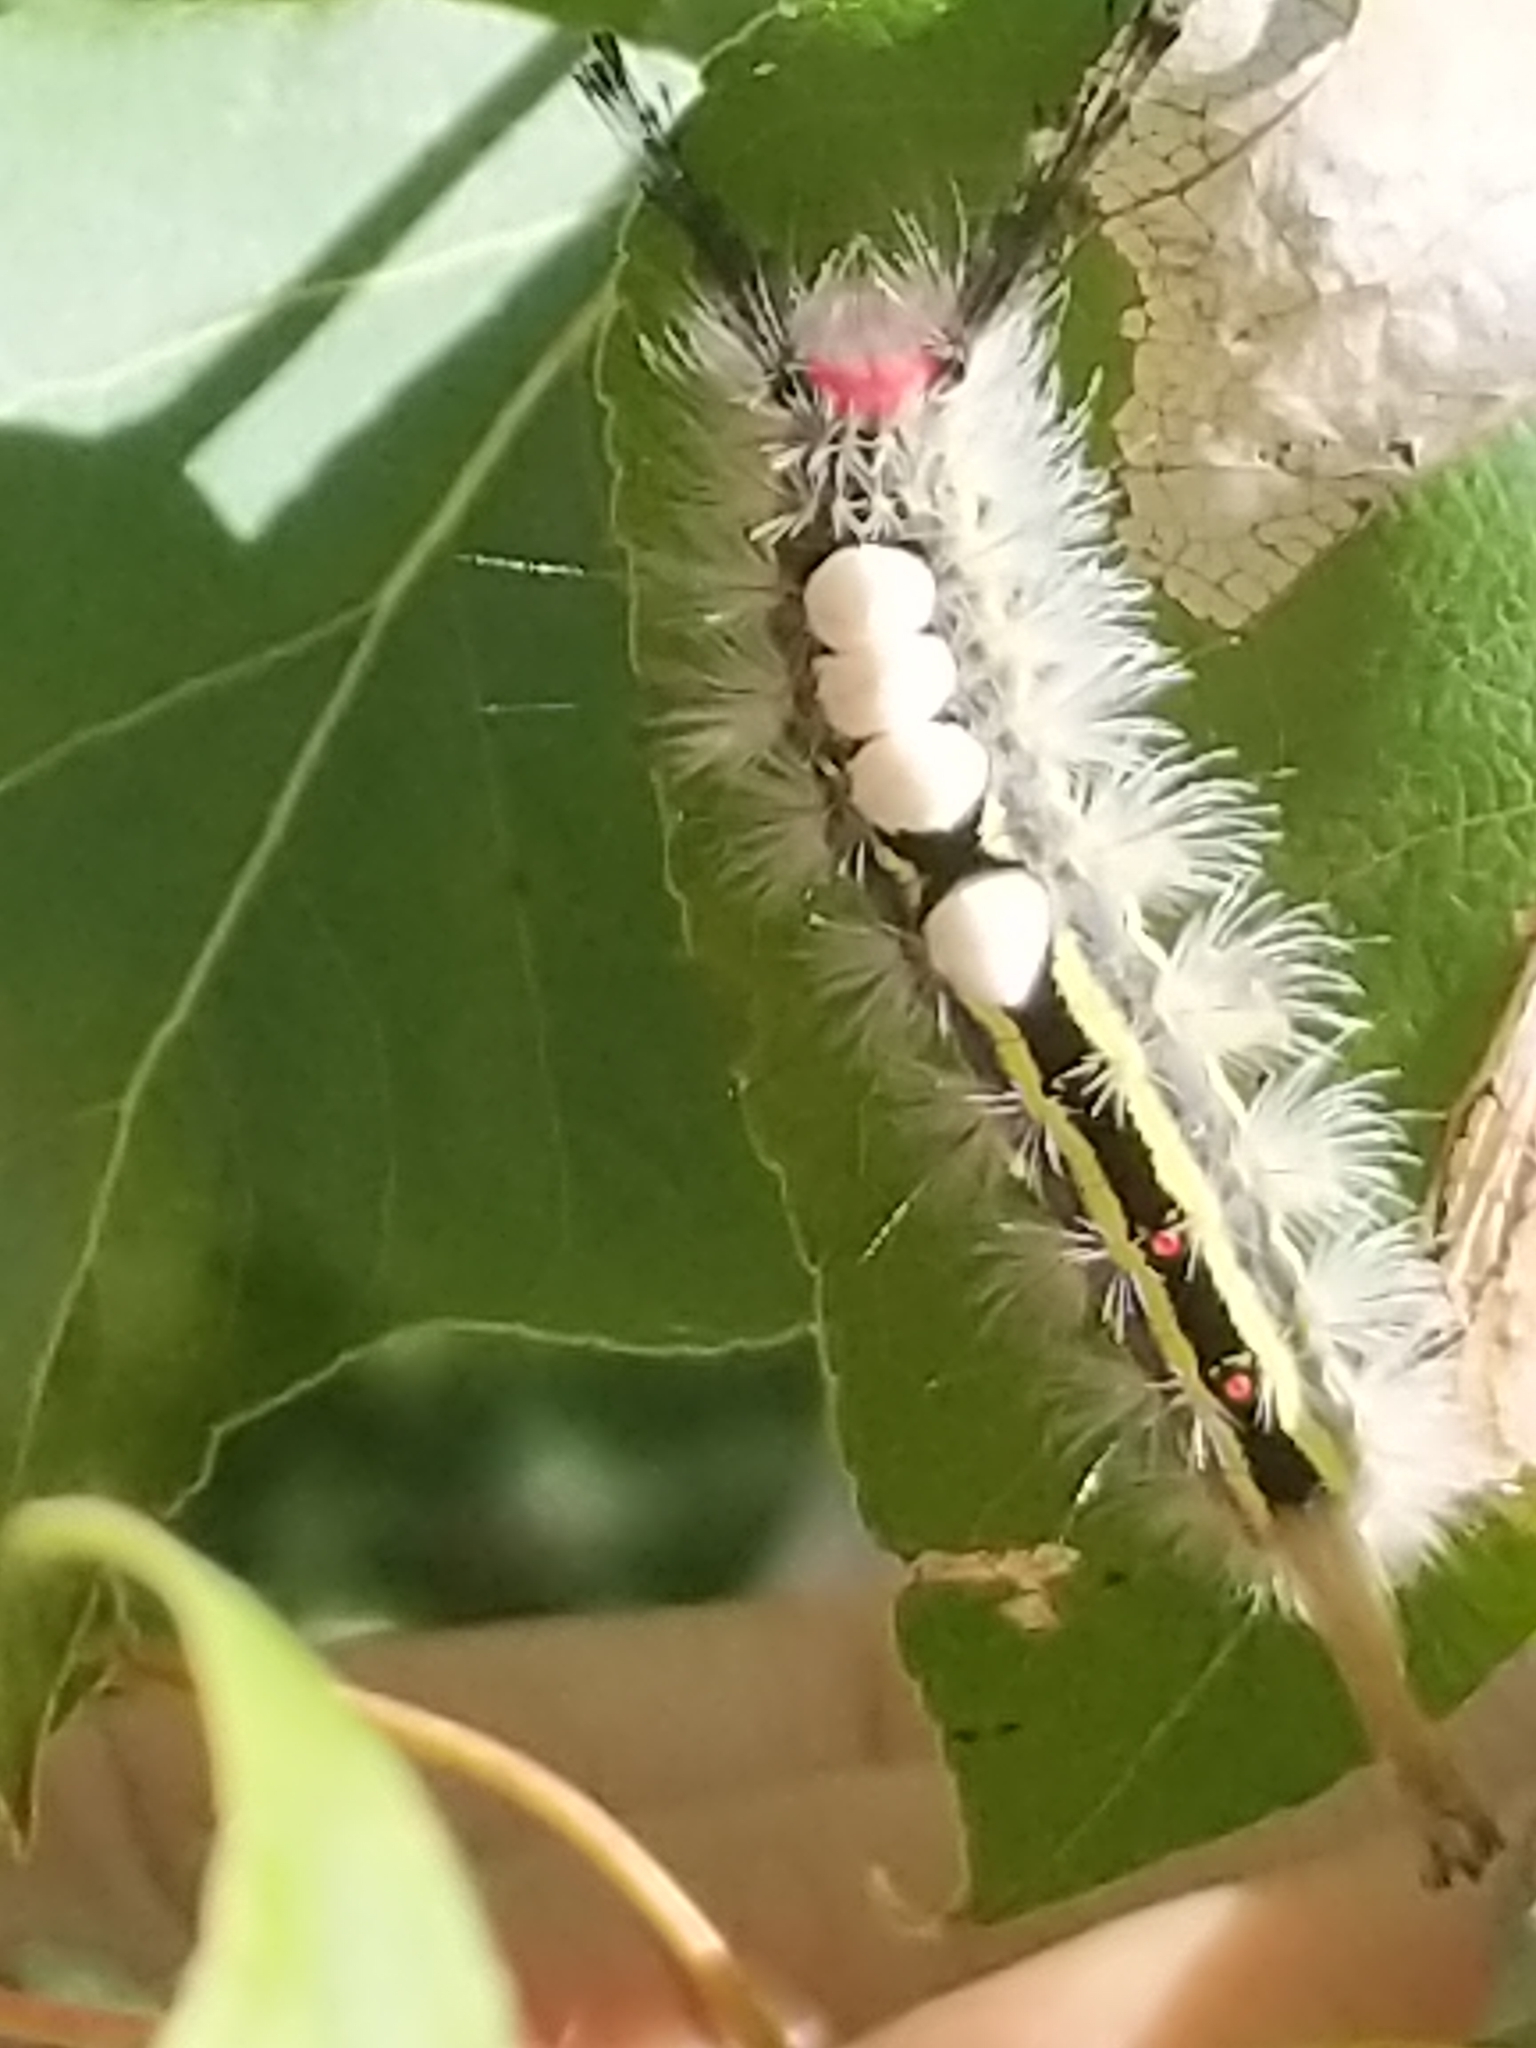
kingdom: Animalia
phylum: Arthropoda
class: Insecta
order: Lepidoptera
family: Erebidae
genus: Orgyia
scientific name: Orgyia leucostigma
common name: White-marked tussock moth
